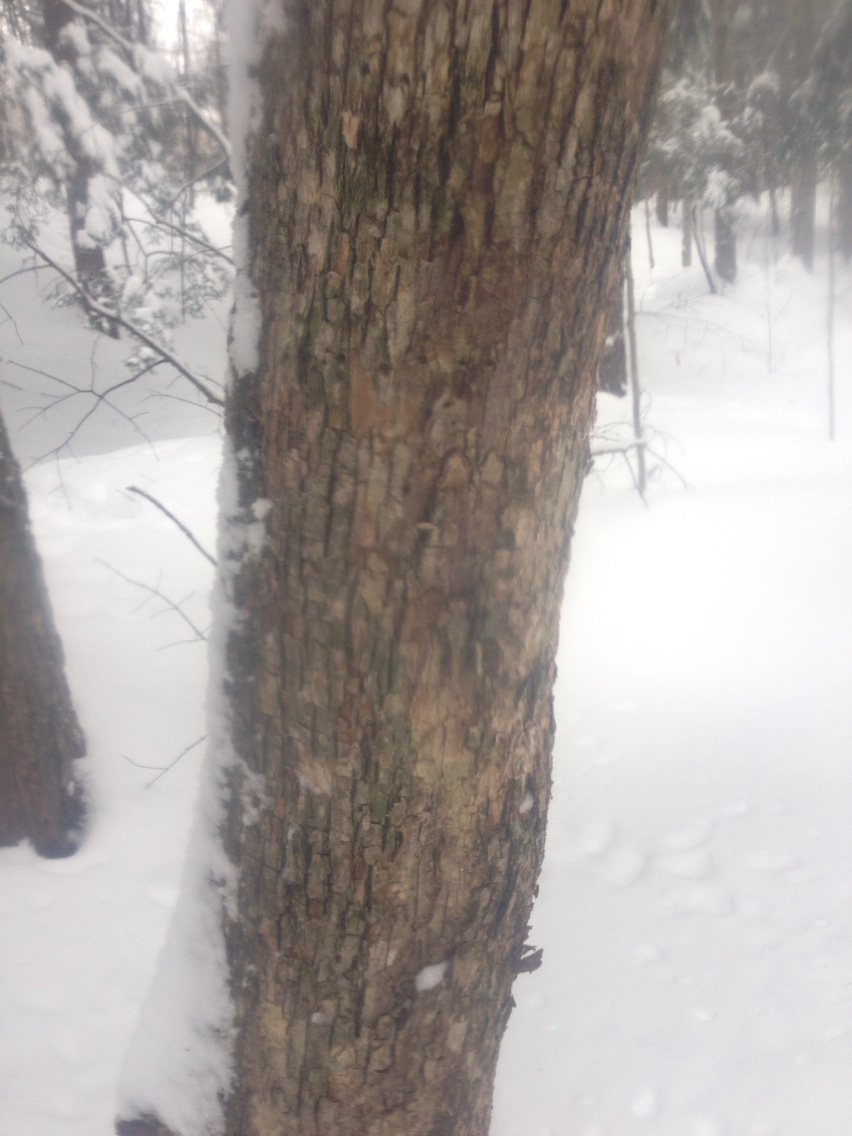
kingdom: Plantae
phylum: Tracheophyta
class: Magnoliopsida
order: Fagales
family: Betulaceae
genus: Ostrya
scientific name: Ostrya virginiana
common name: Ironwood
